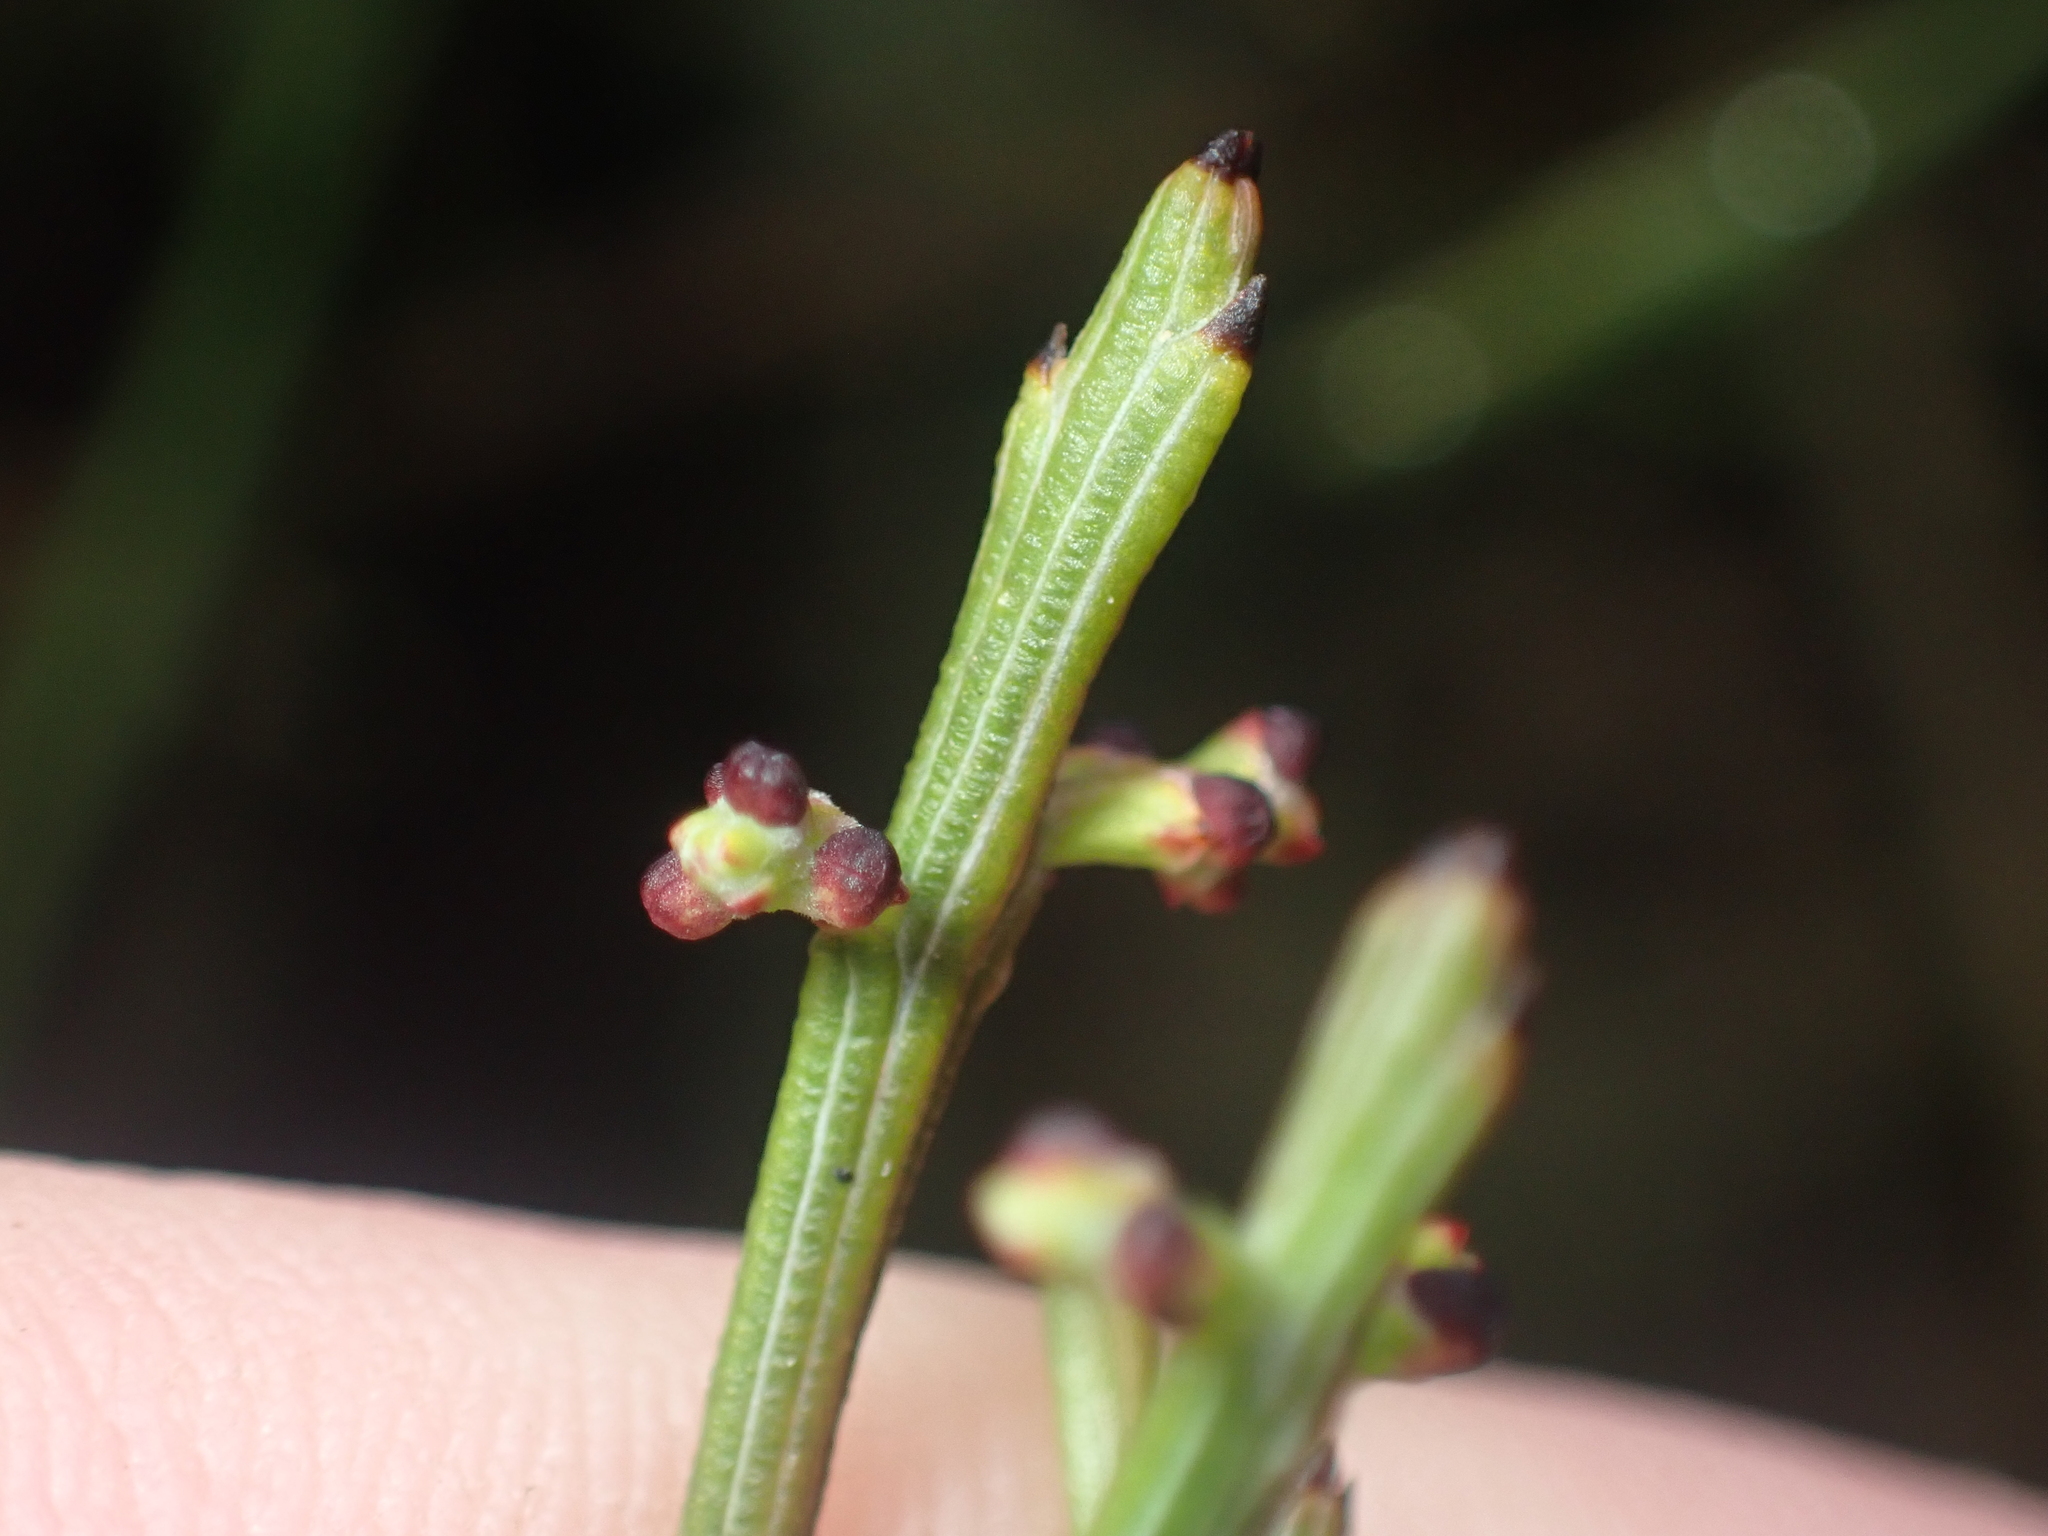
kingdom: Plantae
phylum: Tracheophyta
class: Magnoliopsida
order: Santalales
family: Santalaceae
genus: Exocarpos
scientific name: Exocarpos bidwillii
